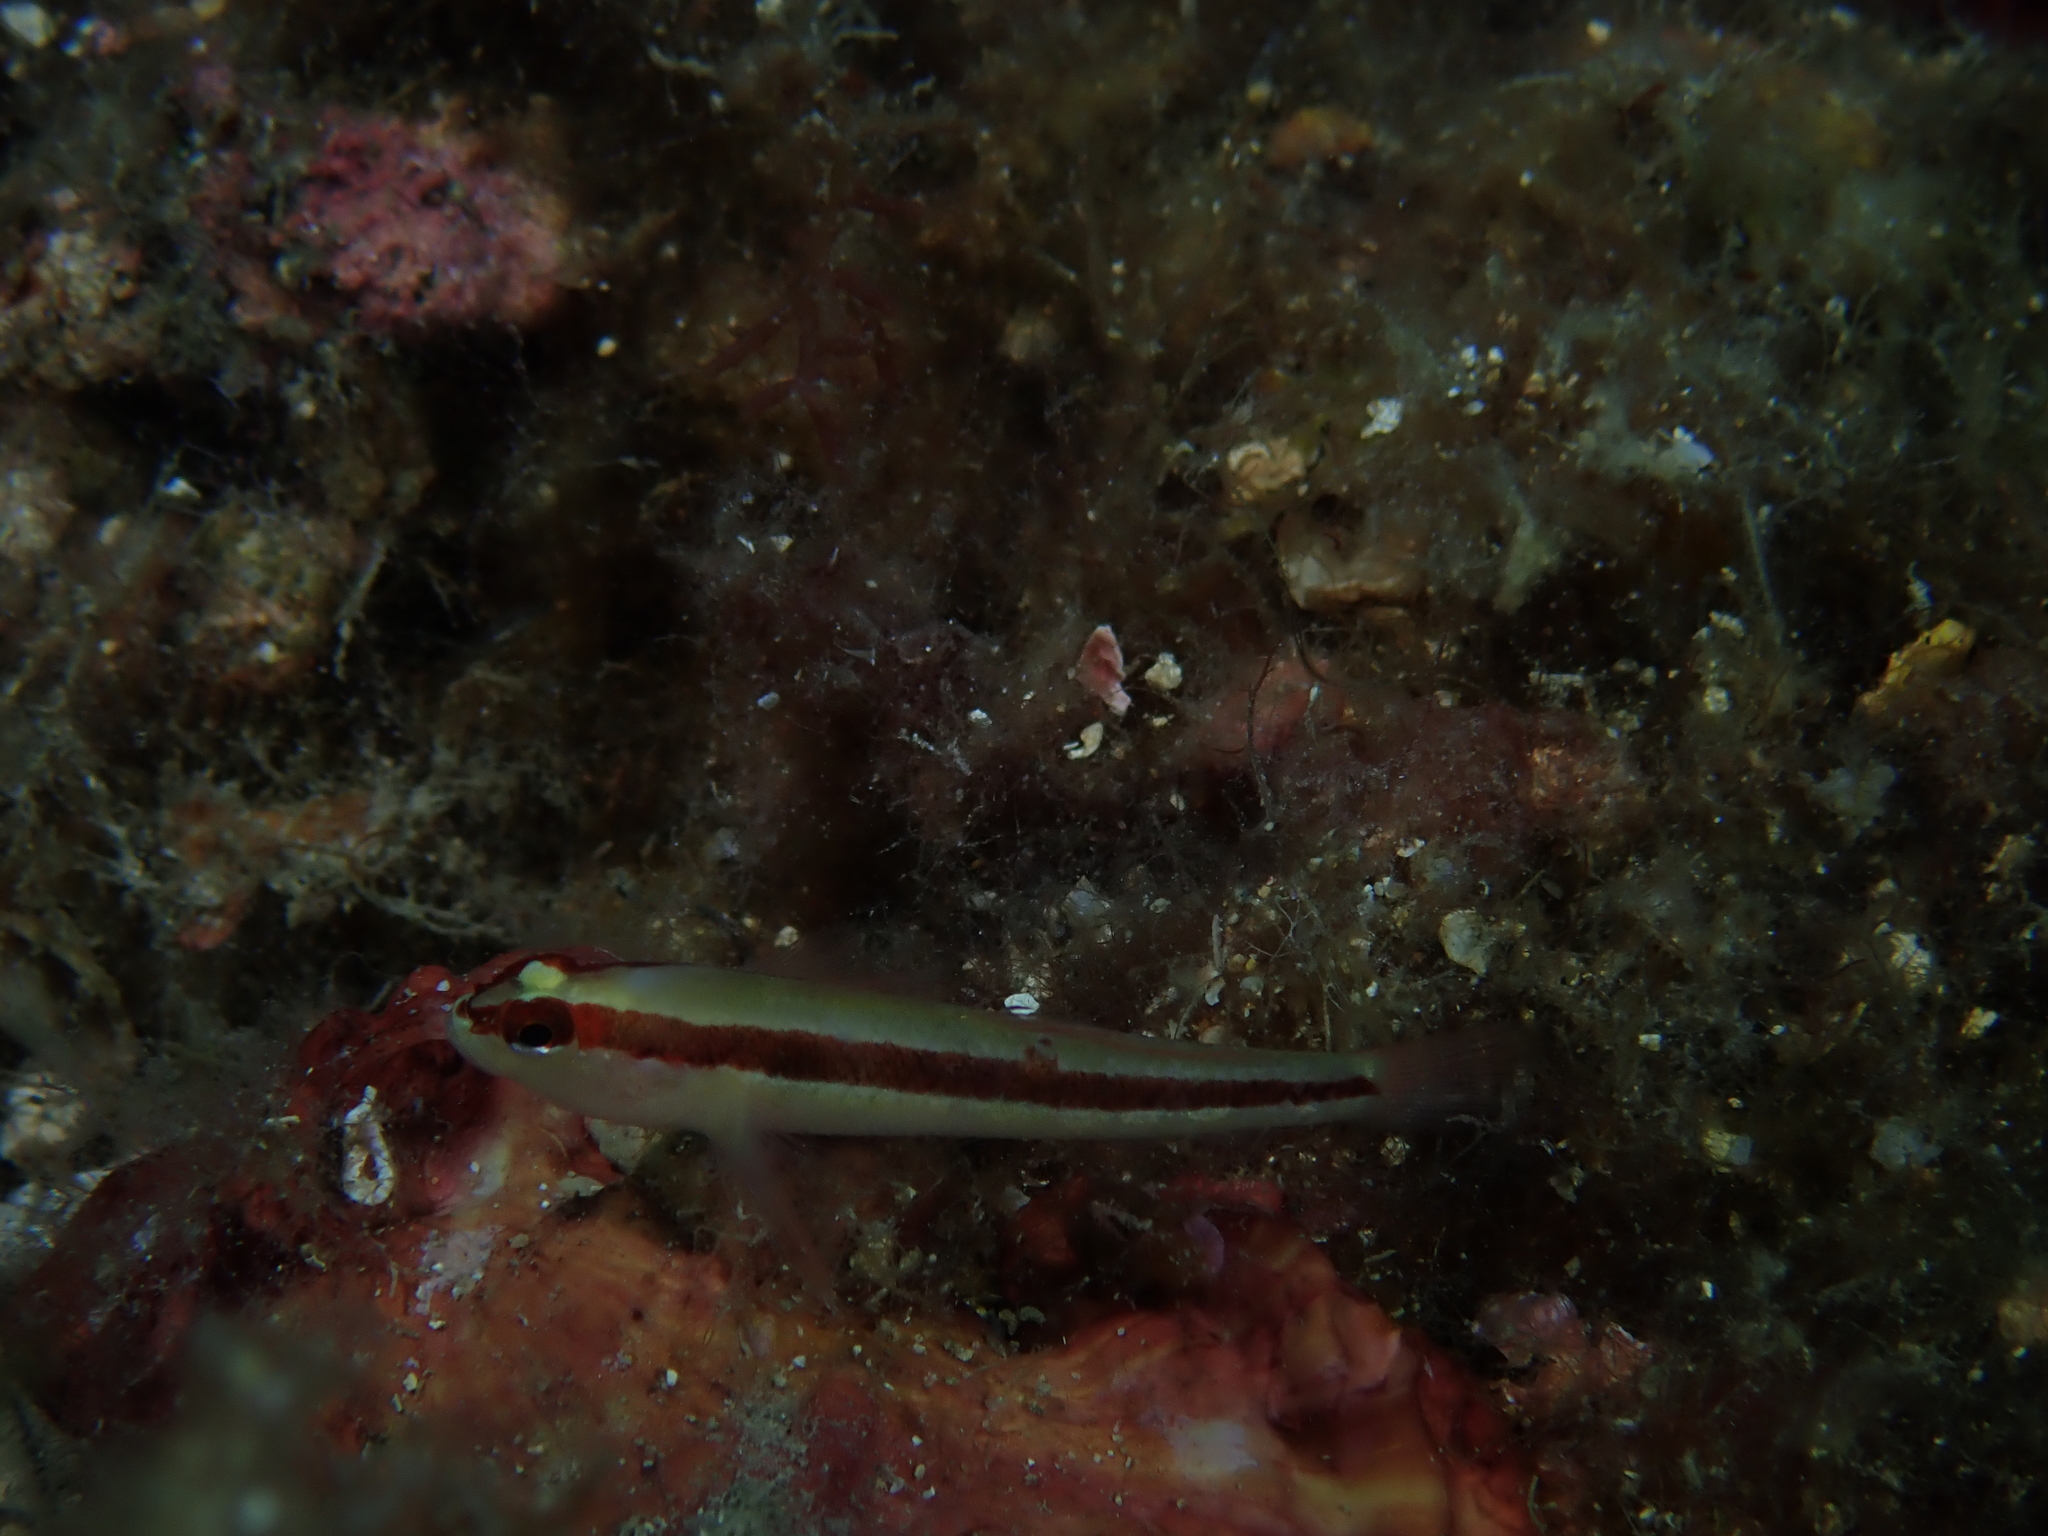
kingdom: Animalia
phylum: Chordata
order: Perciformes
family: Gobiidae
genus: Gobius
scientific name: Gobius vittatus
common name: Striped goby
